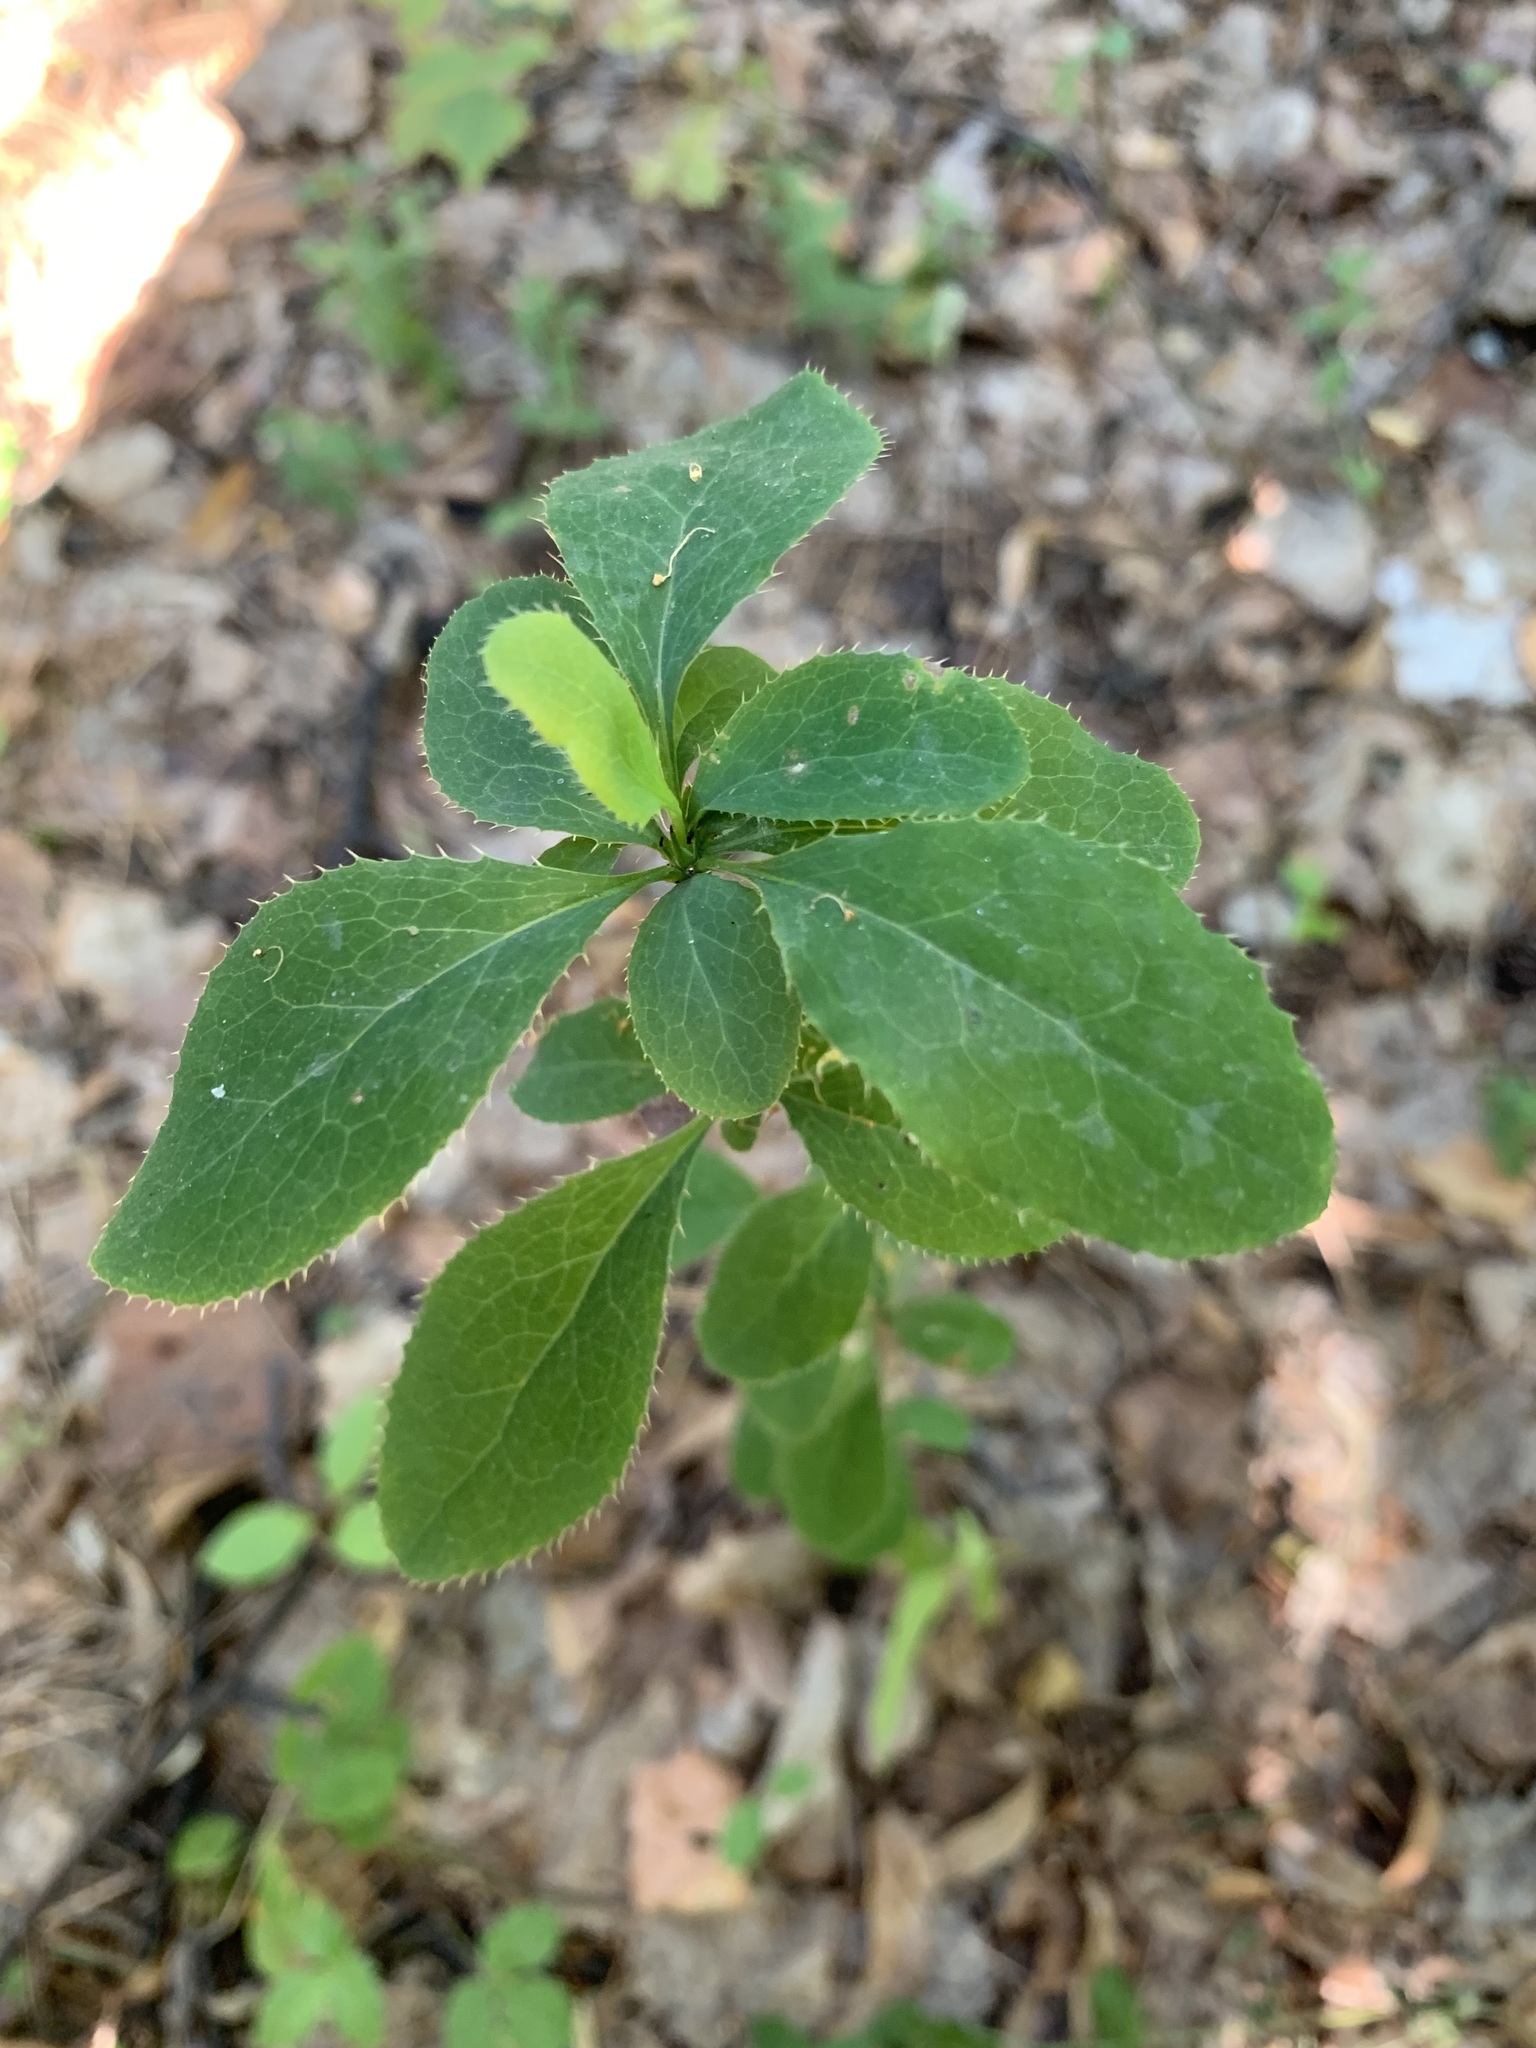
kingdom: Plantae
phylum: Tracheophyta
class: Magnoliopsida
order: Ranunculales
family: Berberidaceae
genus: Berberis
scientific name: Berberis vulgaris
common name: Barberry
